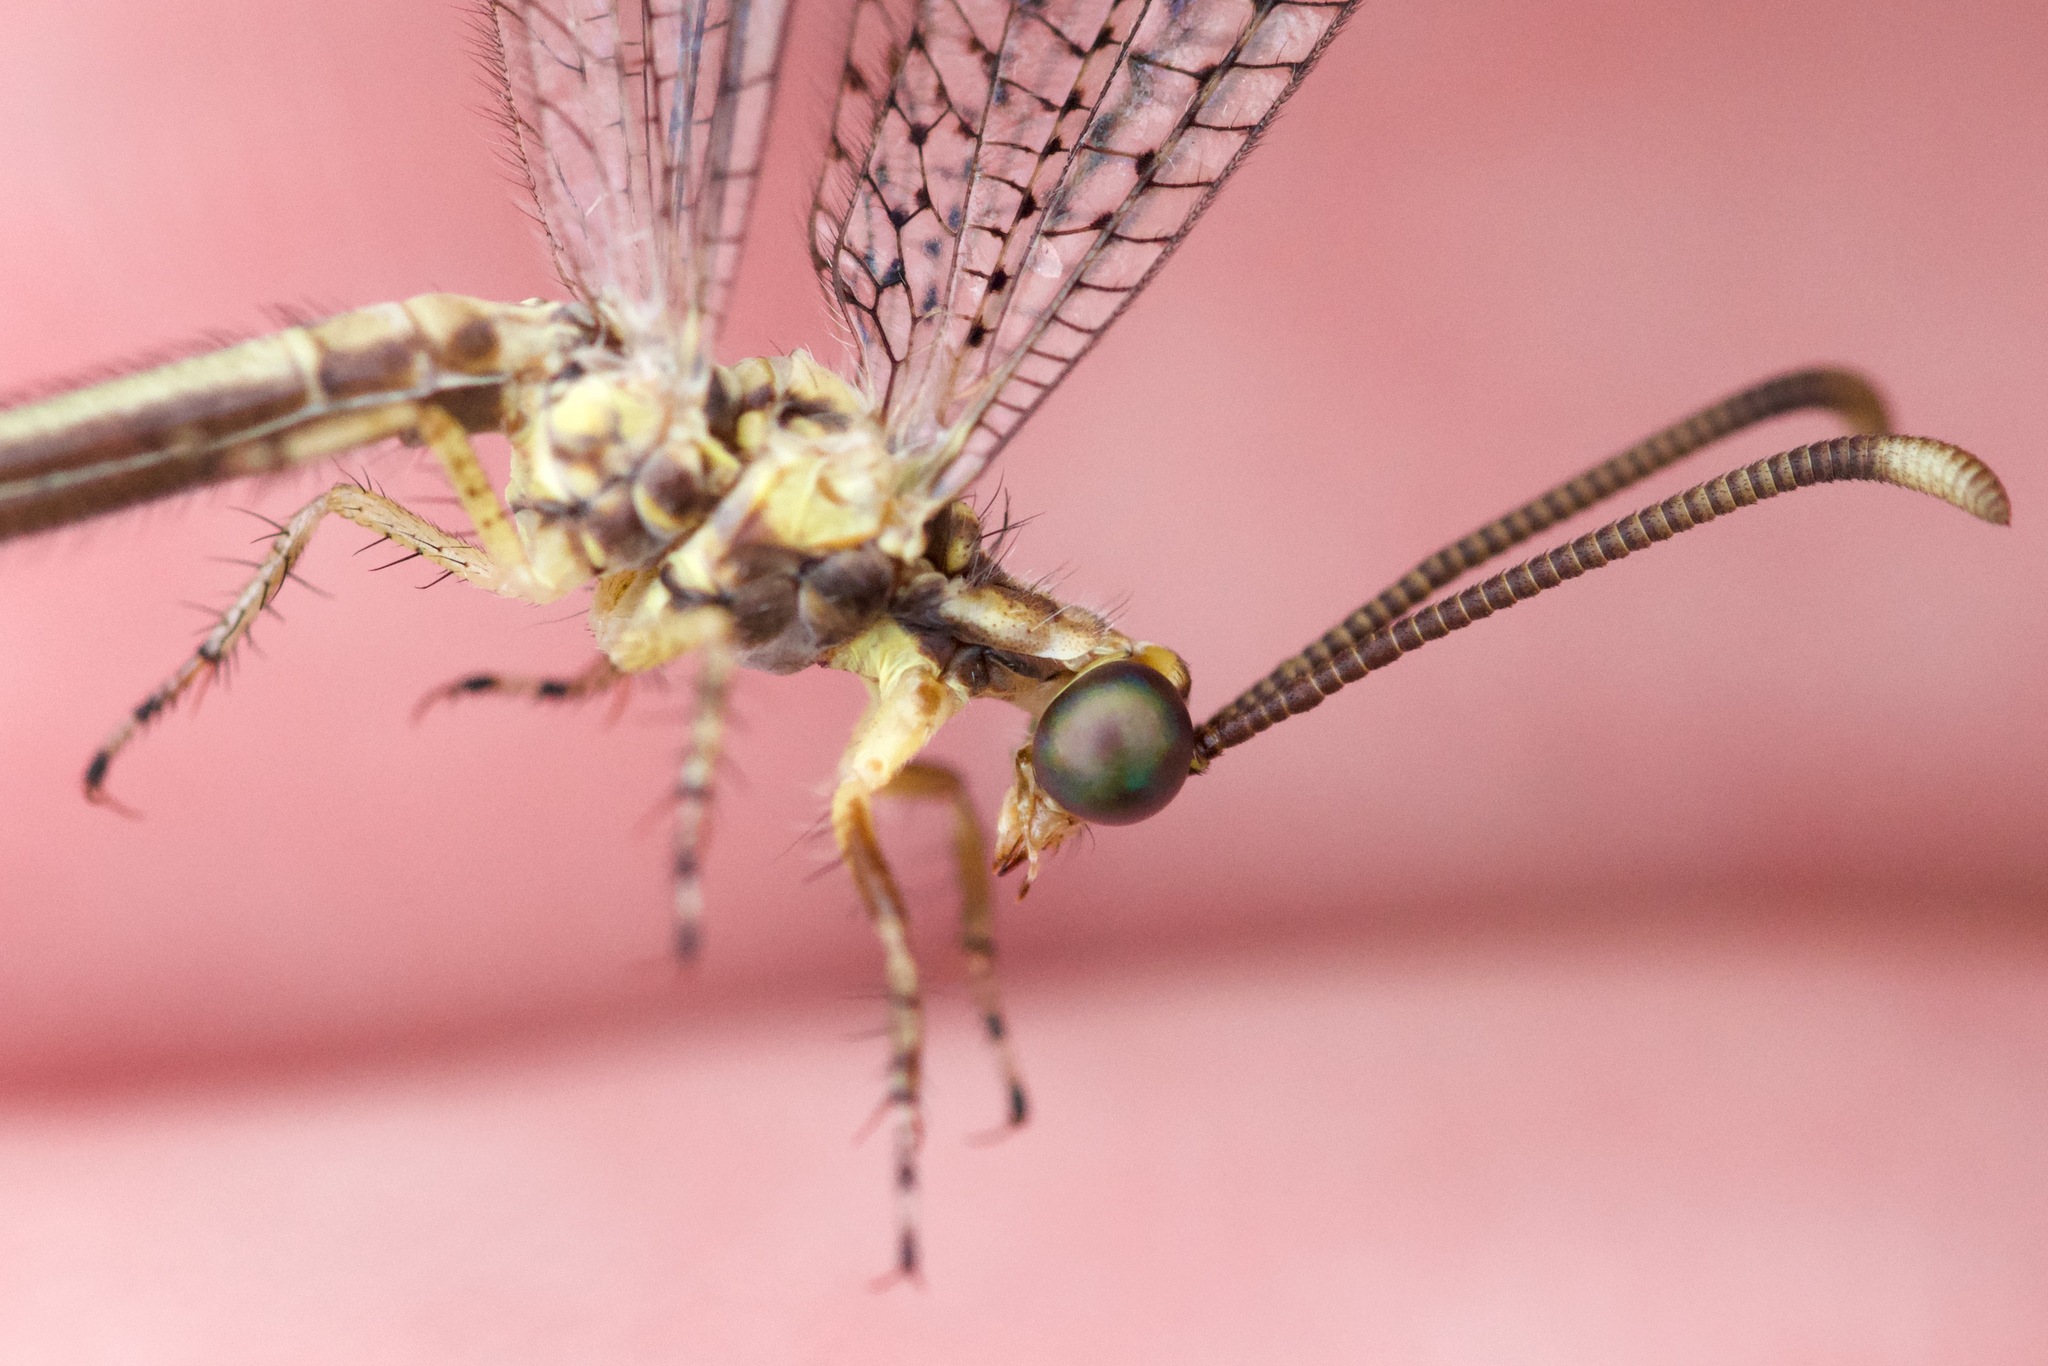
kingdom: Animalia
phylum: Arthropoda
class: Insecta
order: Neuroptera
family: Myrmeleontidae
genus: Brachynemurus
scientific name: Brachynemurus abdominalis
